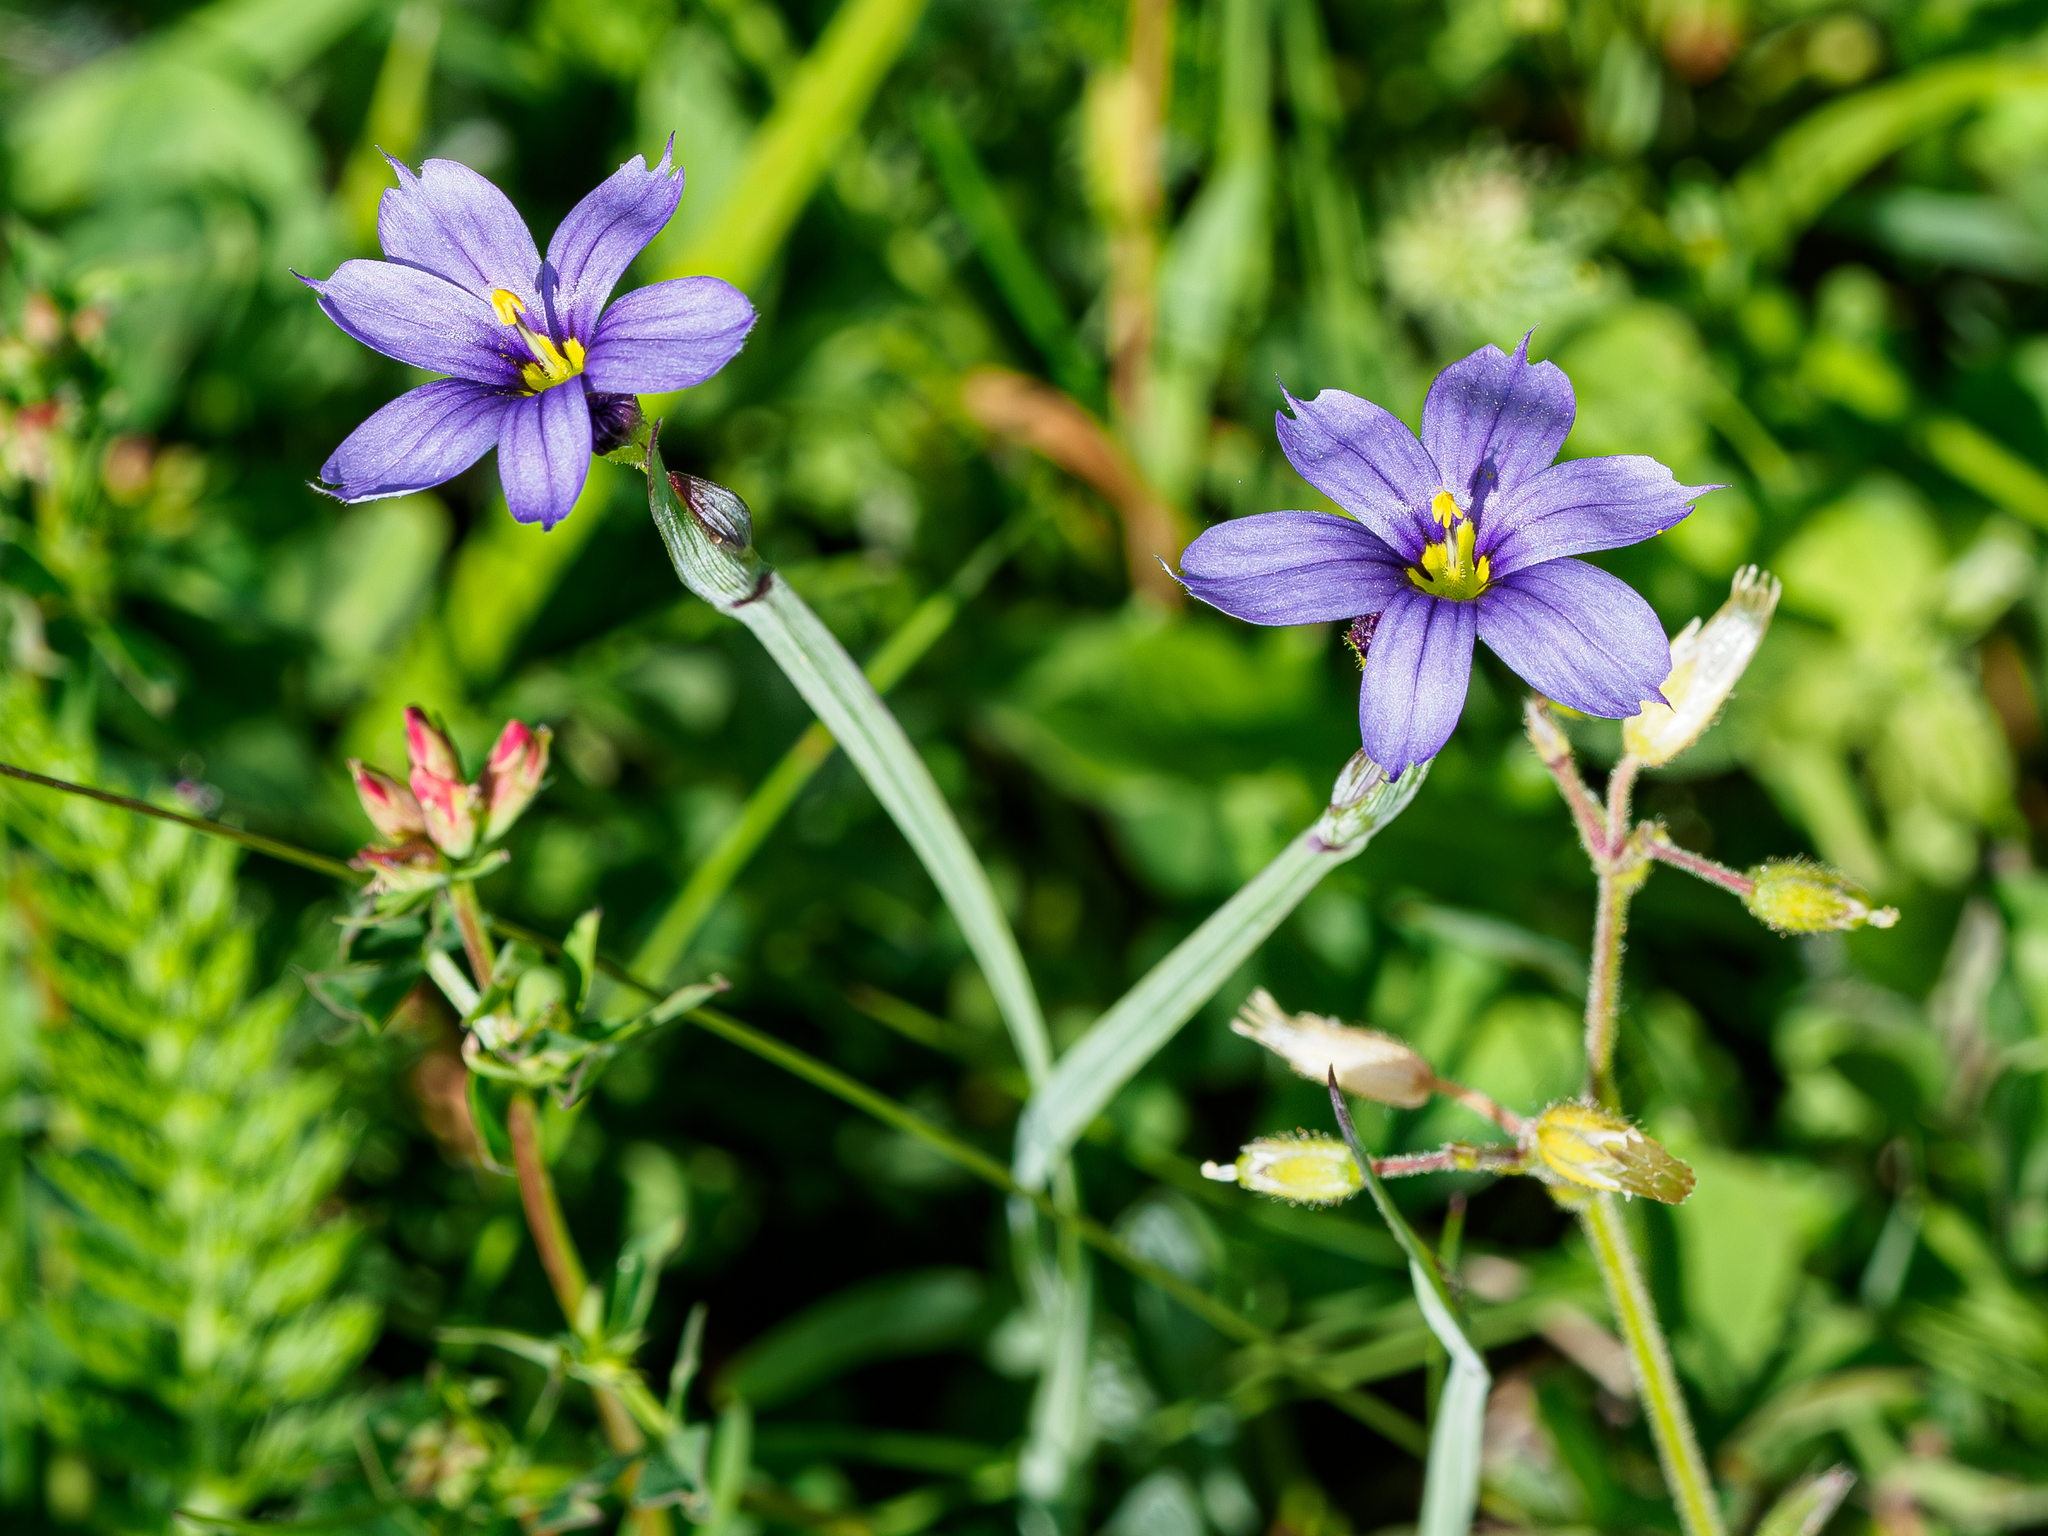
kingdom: Plantae
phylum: Tracheophyta
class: Liliopsida
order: Asparagales
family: Iridaceae
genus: Sisyrinchium
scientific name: Sisyrinchium montanum
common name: American blue-eyed-grass
